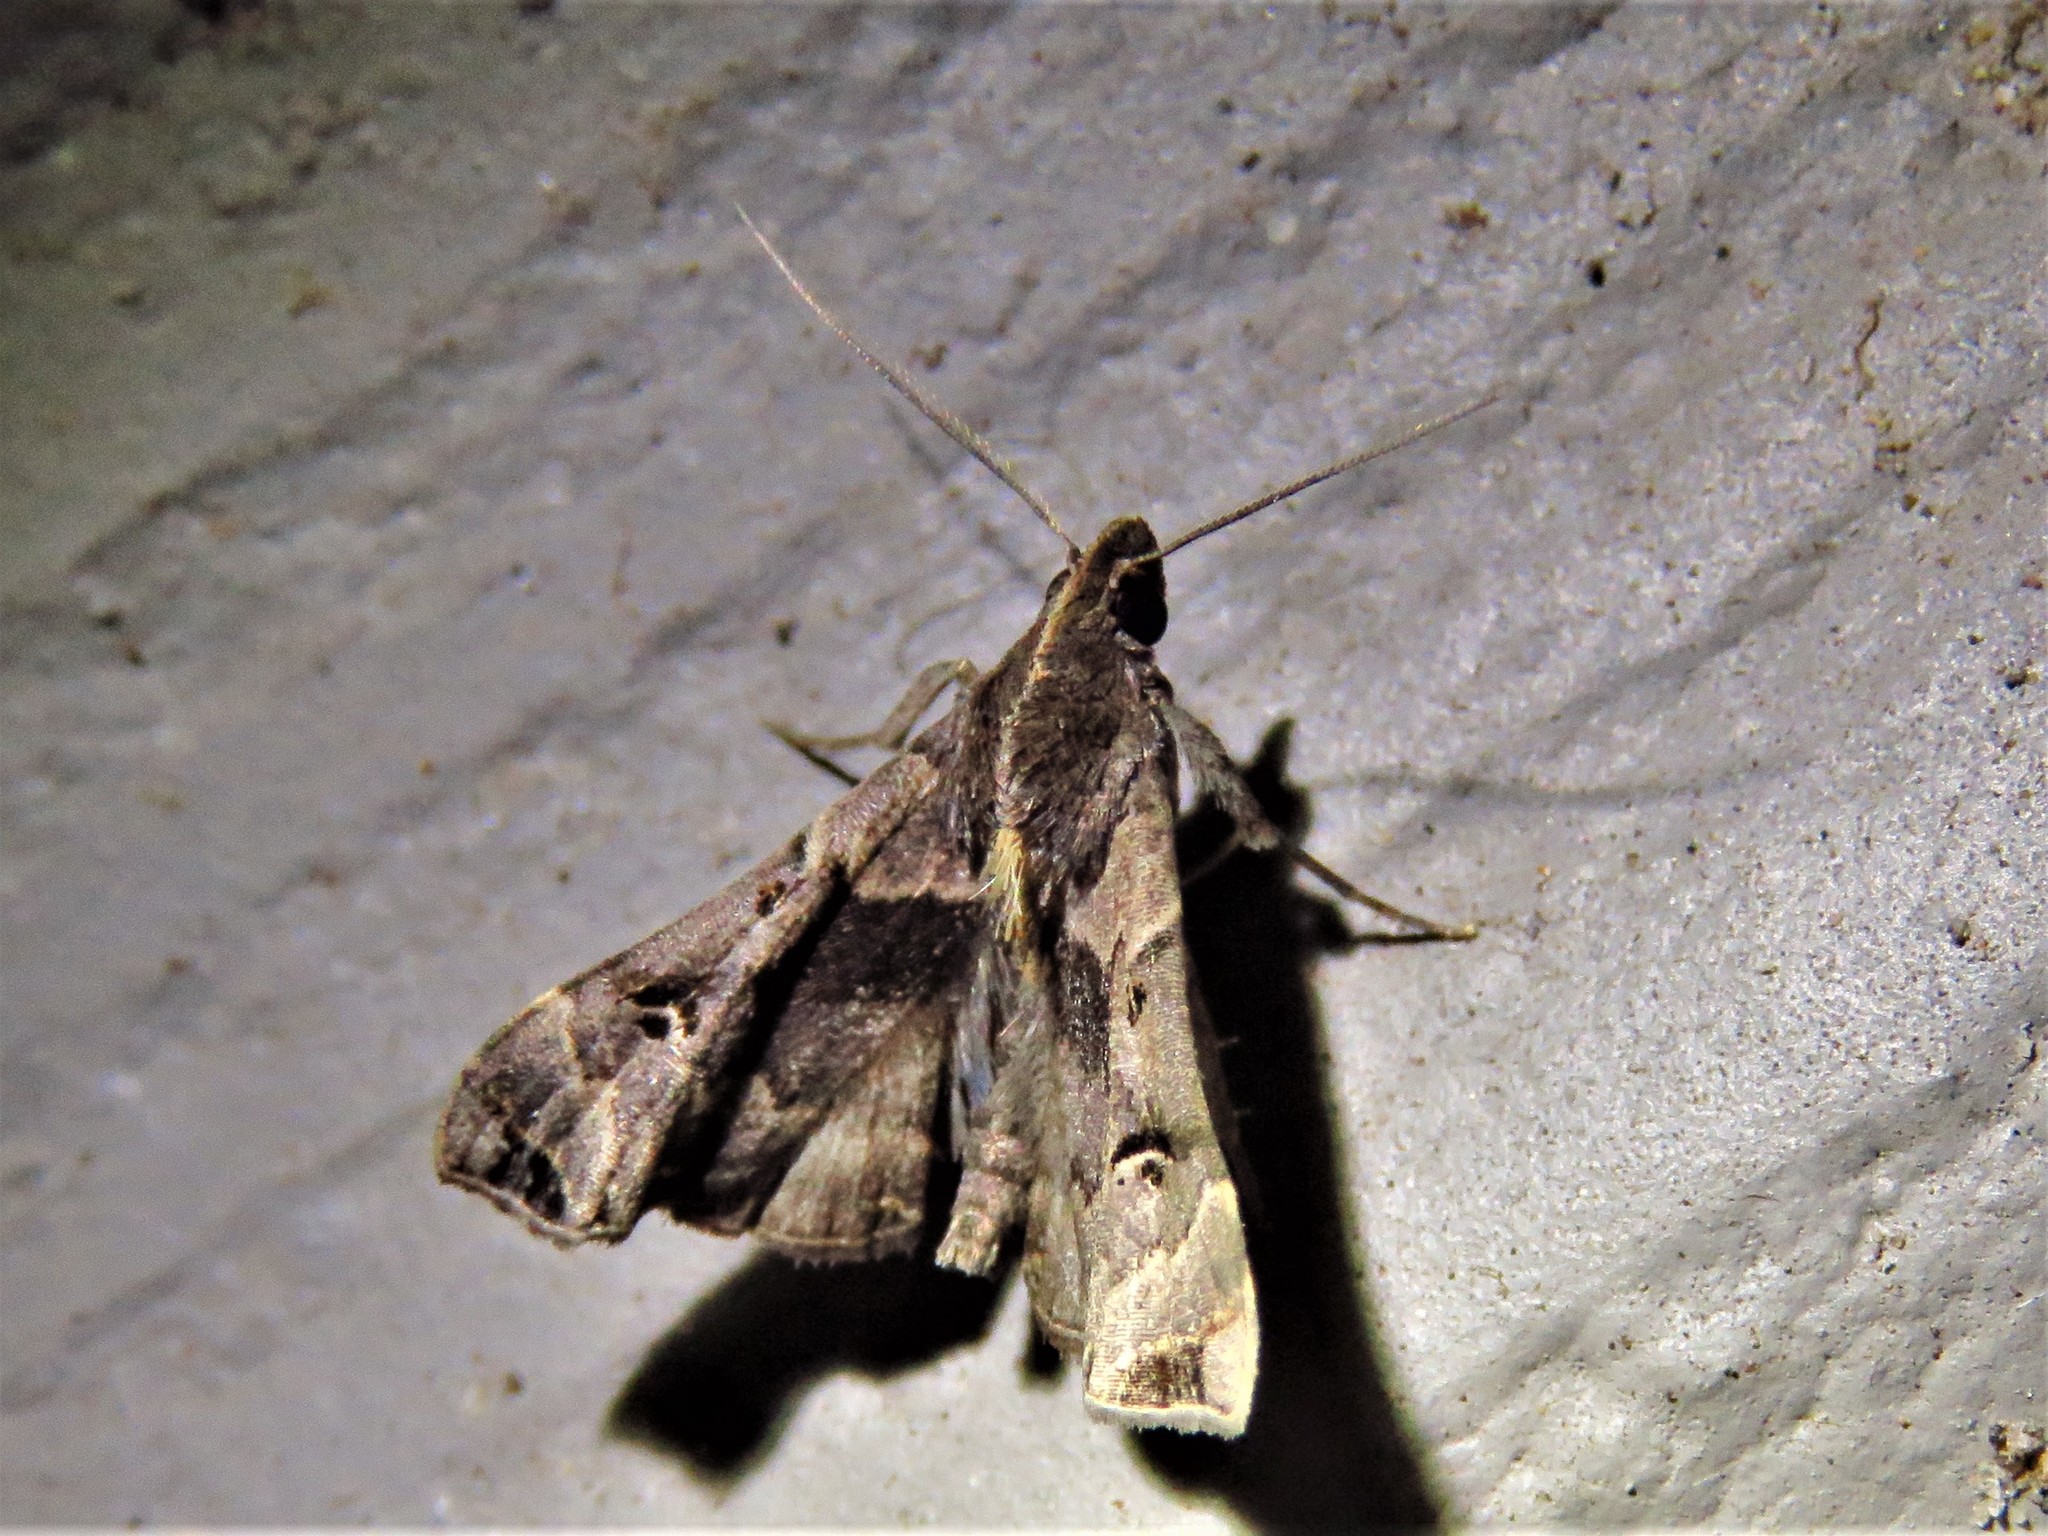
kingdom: Animalia
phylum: Arthropoda
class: Insecta
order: Lepidoptera
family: Erebidae
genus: Palthis
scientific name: Palthis asopialis
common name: Faint-spotted palthis moth
